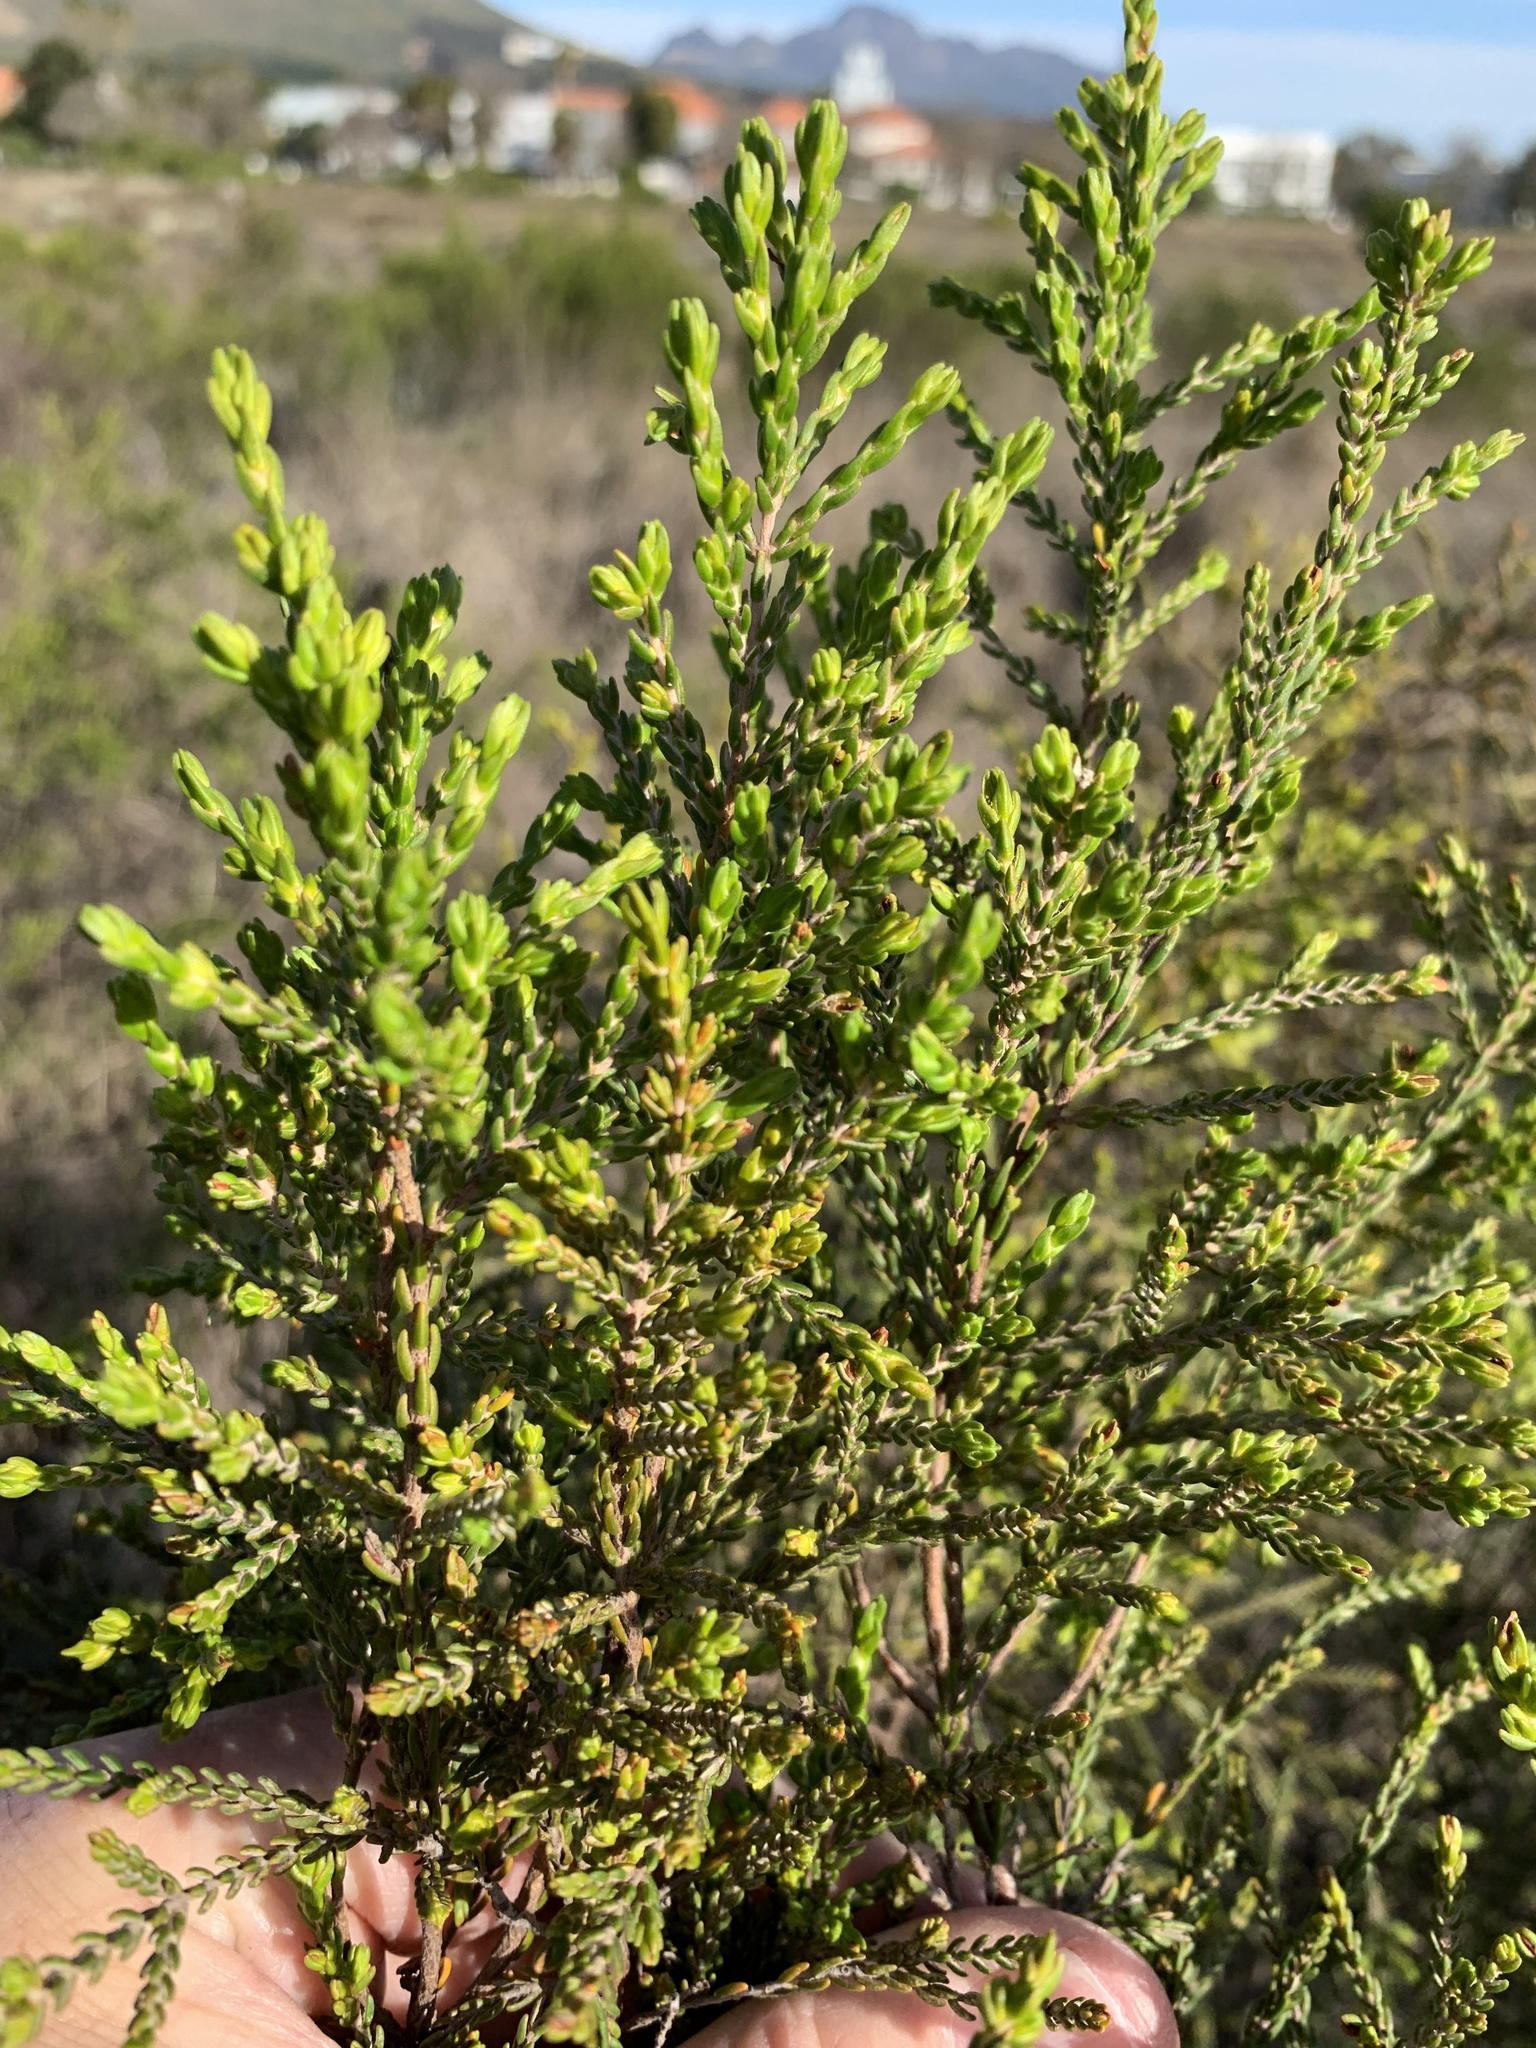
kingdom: Plantae
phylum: Tracheophyta
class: Magnoliopsida
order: Malvales
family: Thymelaeaceae
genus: Passerina
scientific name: Passerina corymbosa
